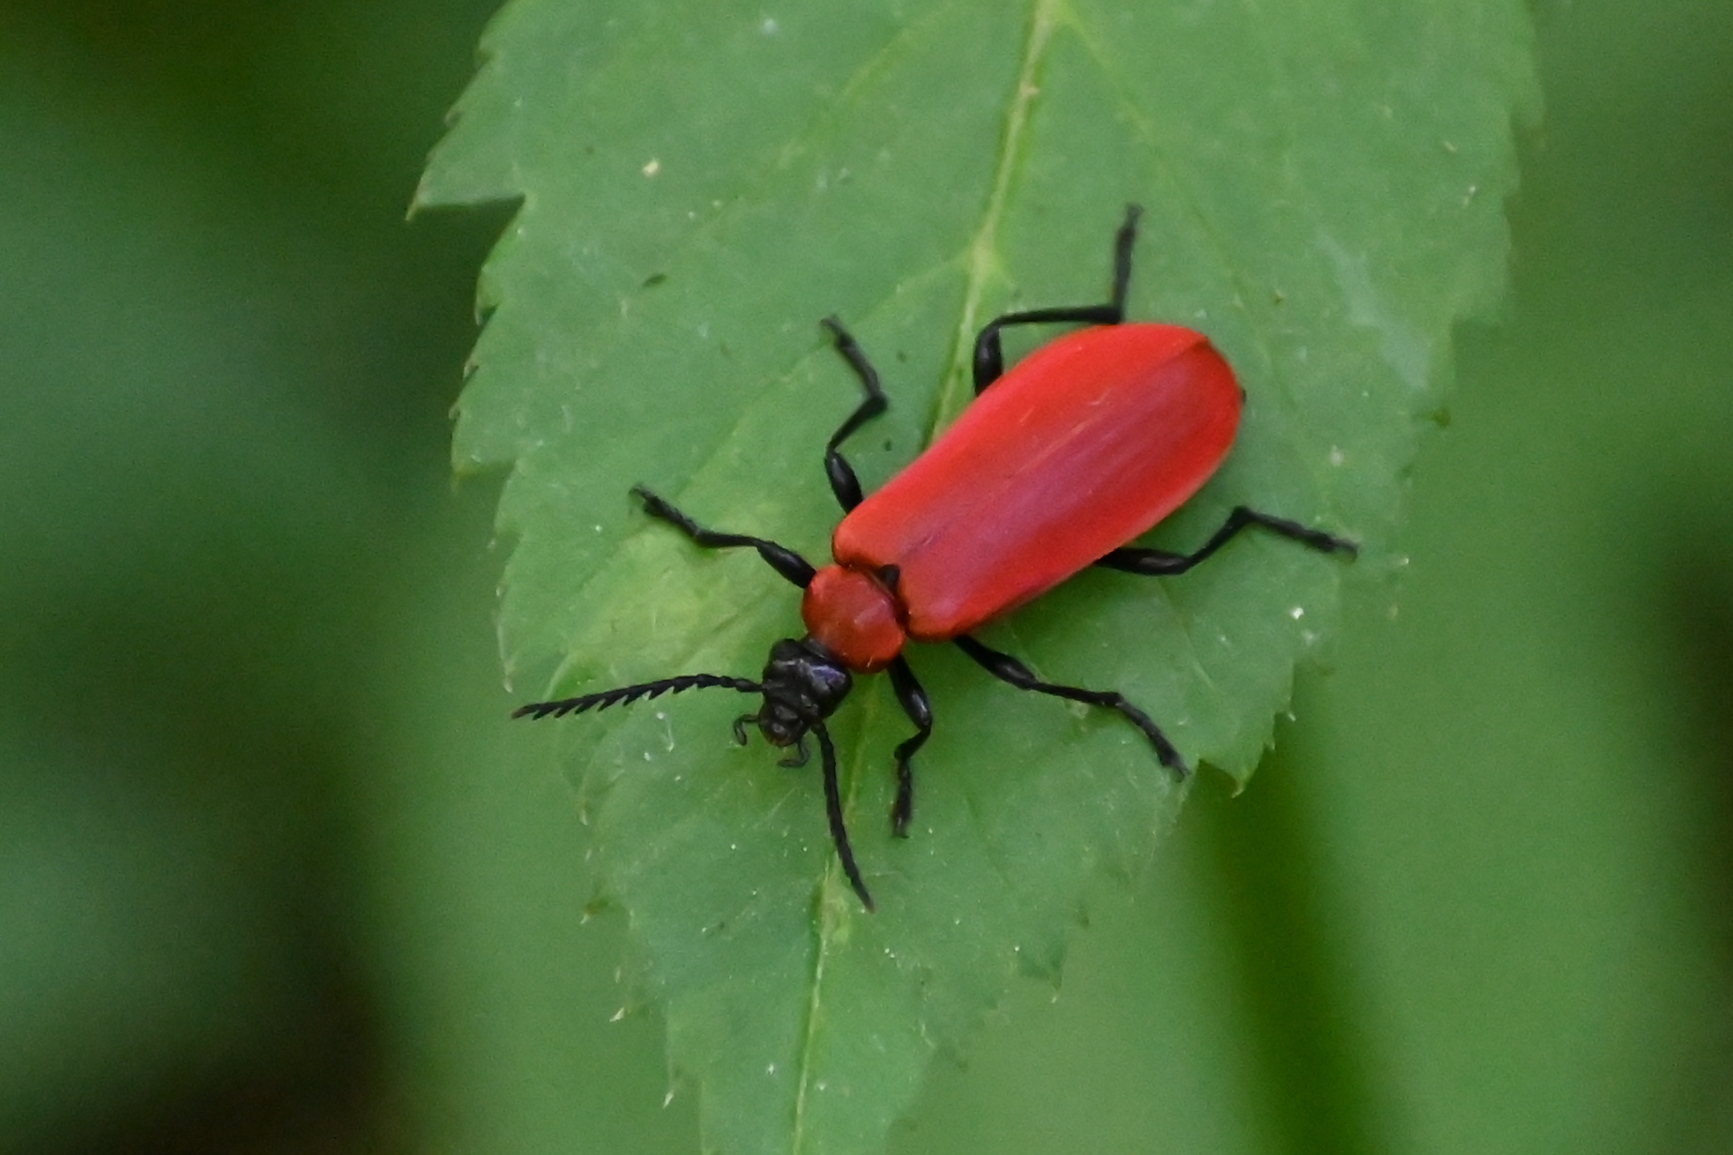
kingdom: Animalia
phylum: Arthropoda
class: Insecta
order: Coleoptera
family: Pyrochroidae
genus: Pyrochroa
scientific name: Pyrochroa coccinea
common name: Black-headed cardinal beetle
